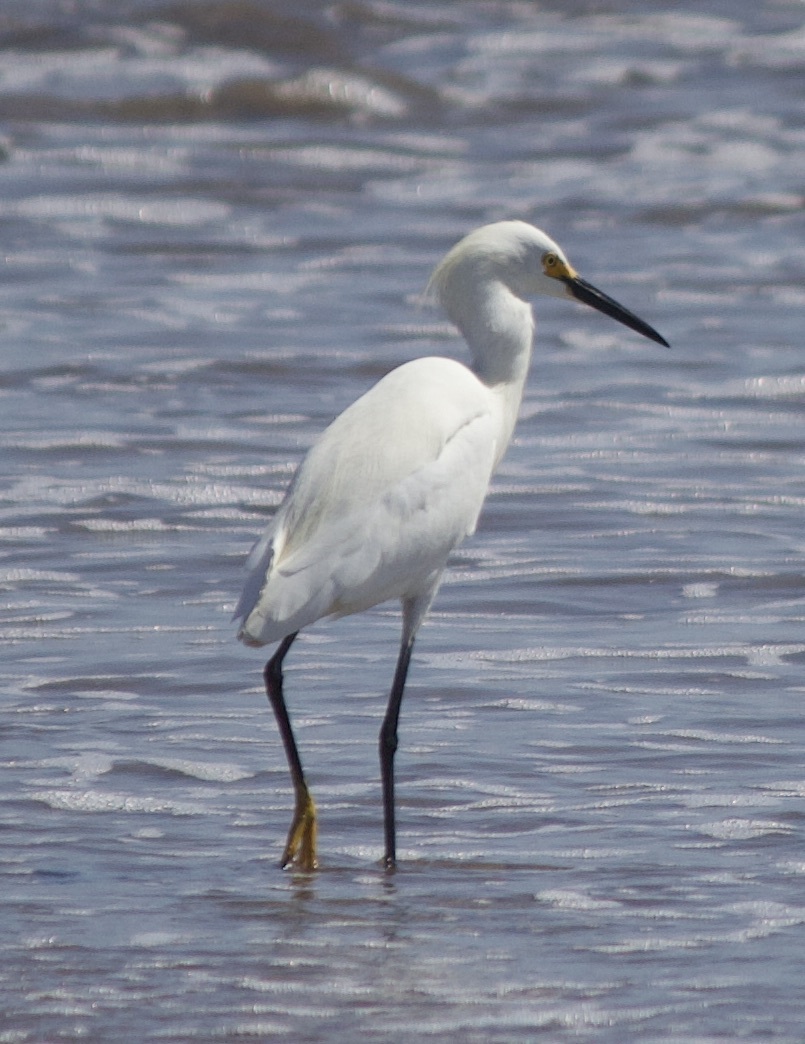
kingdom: Animalia
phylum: Chordata
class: Aves
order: Pelecaniformes
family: Ardeidae
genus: Egretta
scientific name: Egretta thula
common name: Snowy egret
